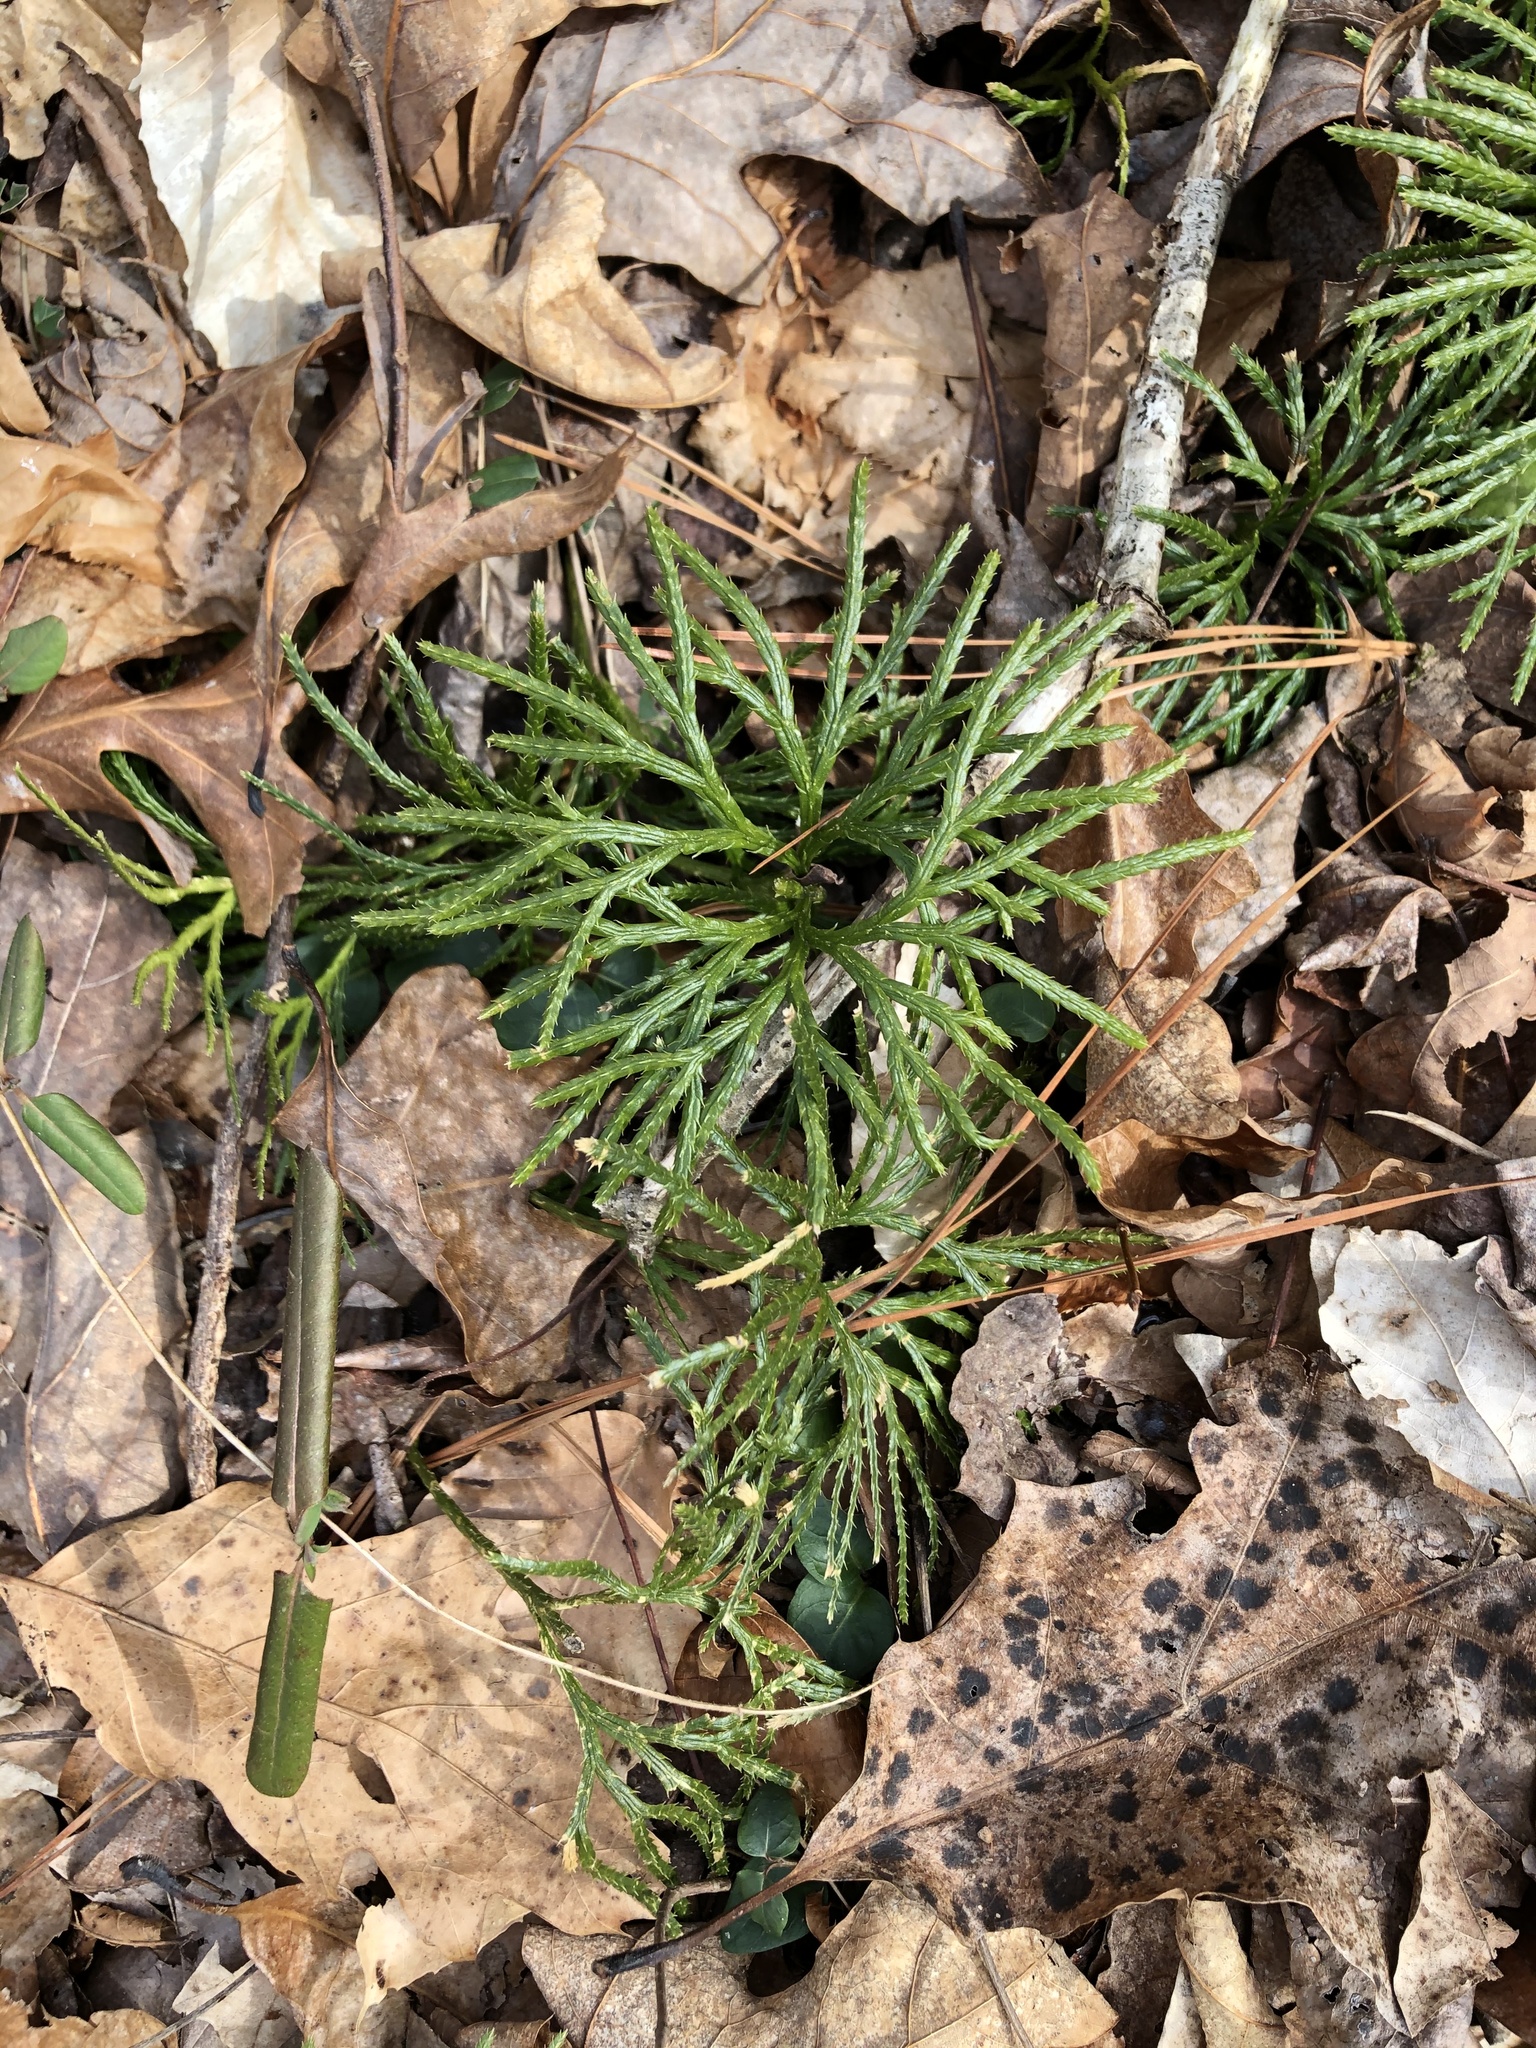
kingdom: Plantae
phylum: Tracheophyta
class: Lycopodiopsida
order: Lycopodiales
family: Lycopodiaceae
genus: Diphasiastrum
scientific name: Diphasiastrum digitatum
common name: Southern running-pine
